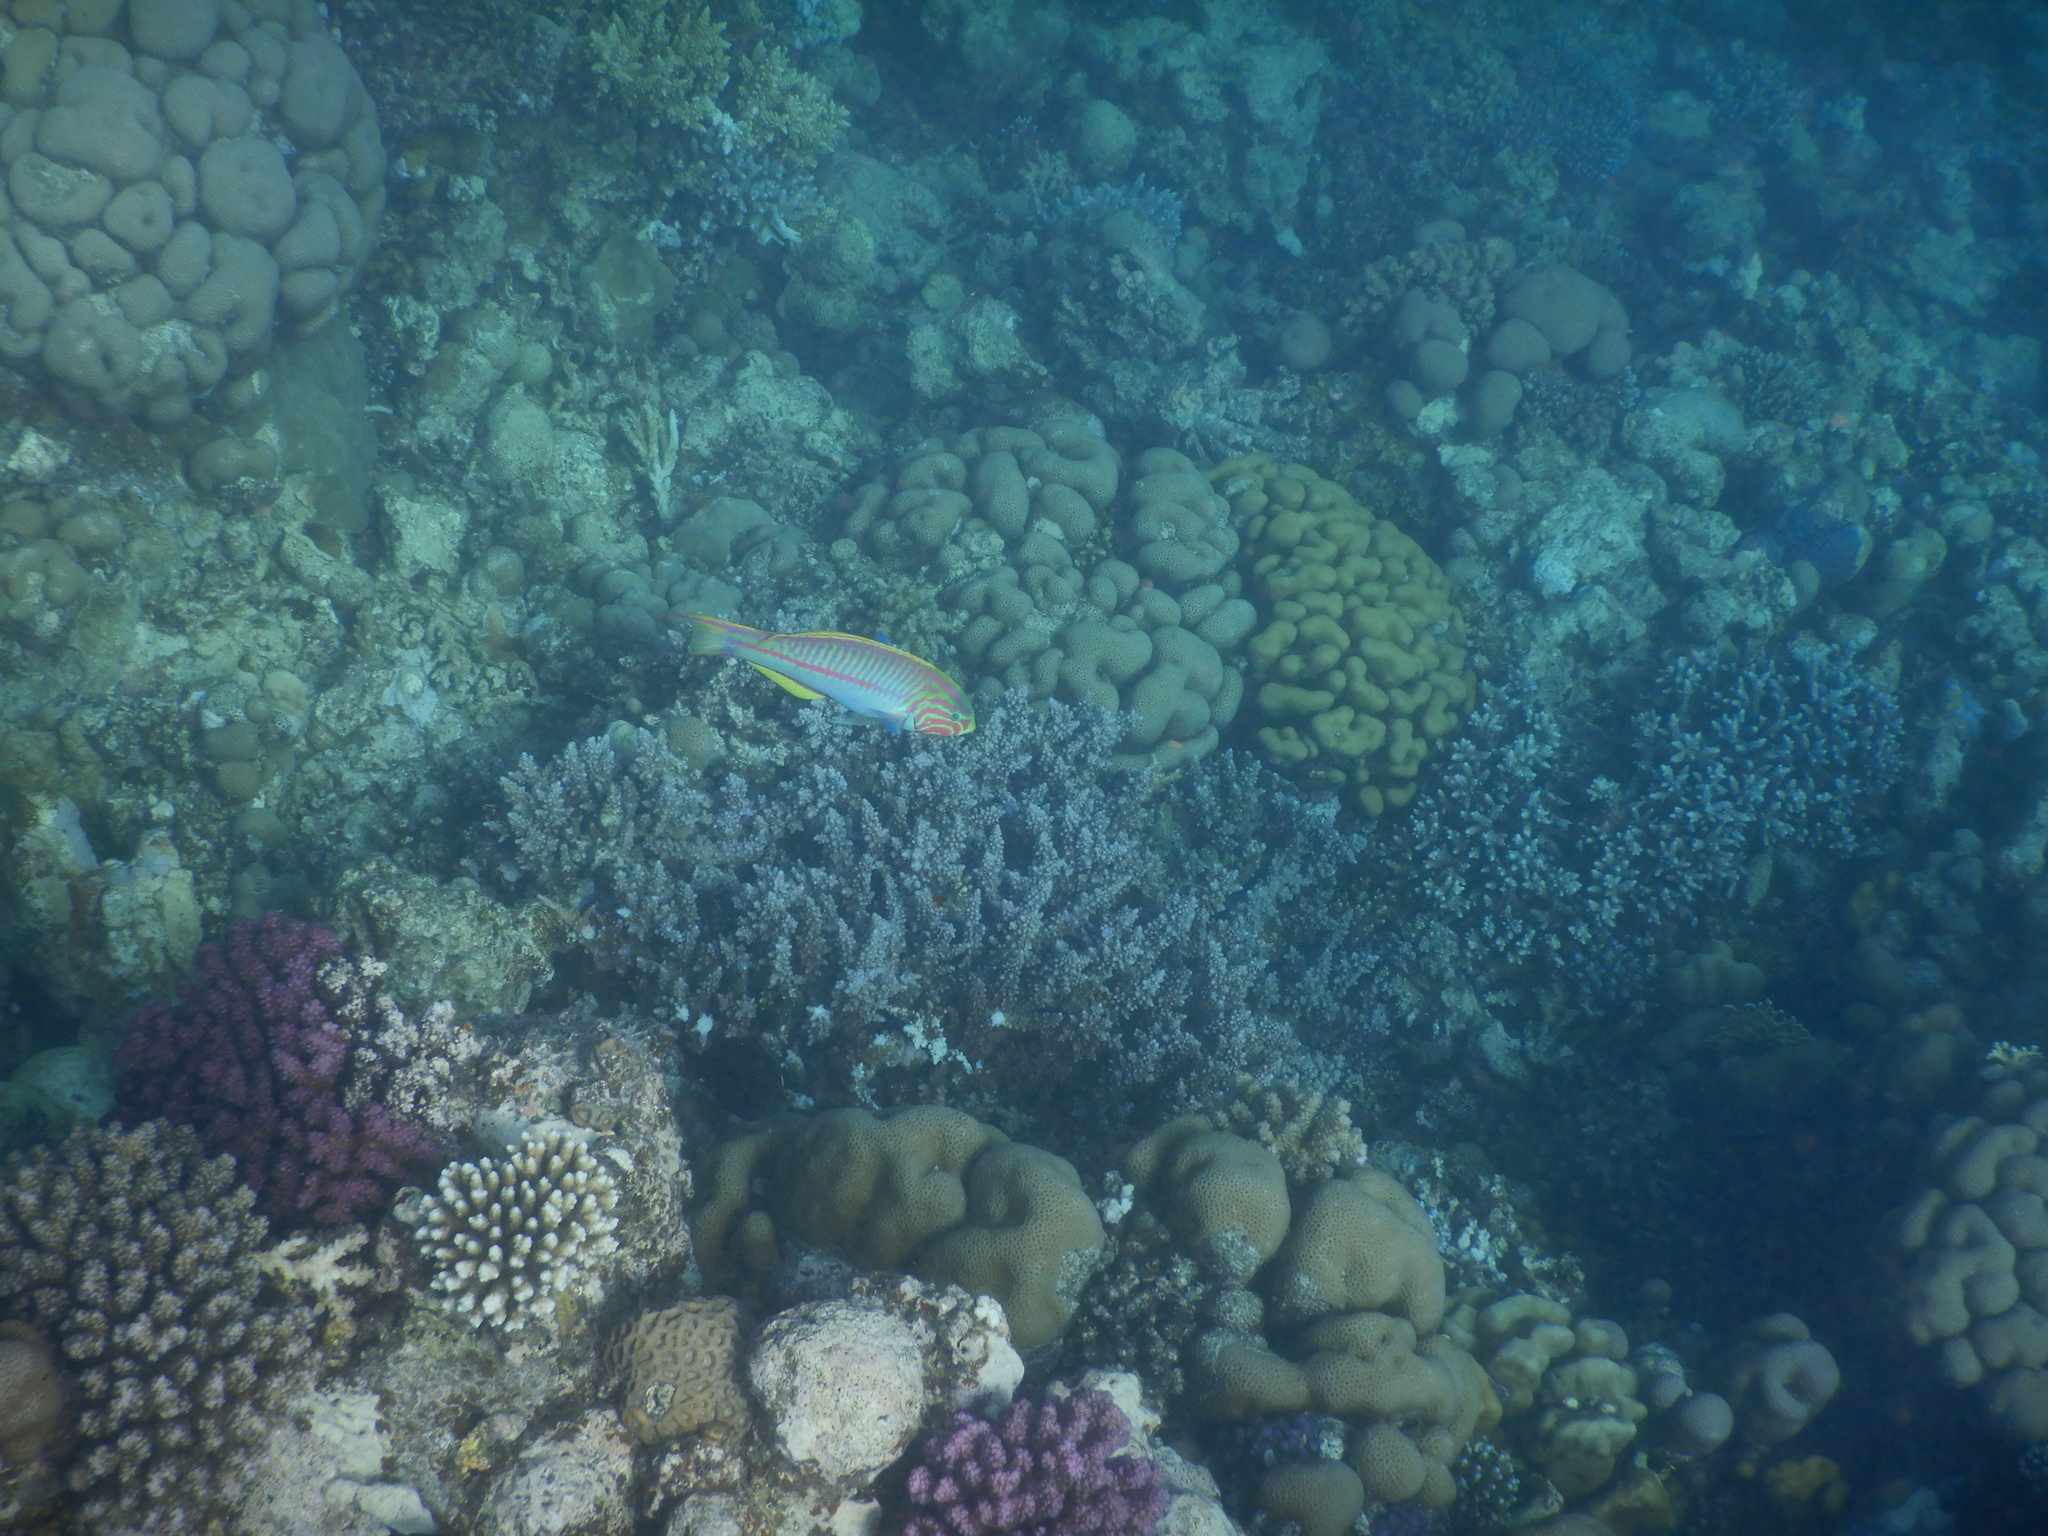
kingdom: Animalia
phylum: Chordata
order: Perciformes
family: Labridae
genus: Thalassoma
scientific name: Thalassoma rueppellii
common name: Klunzinger's wrasse
